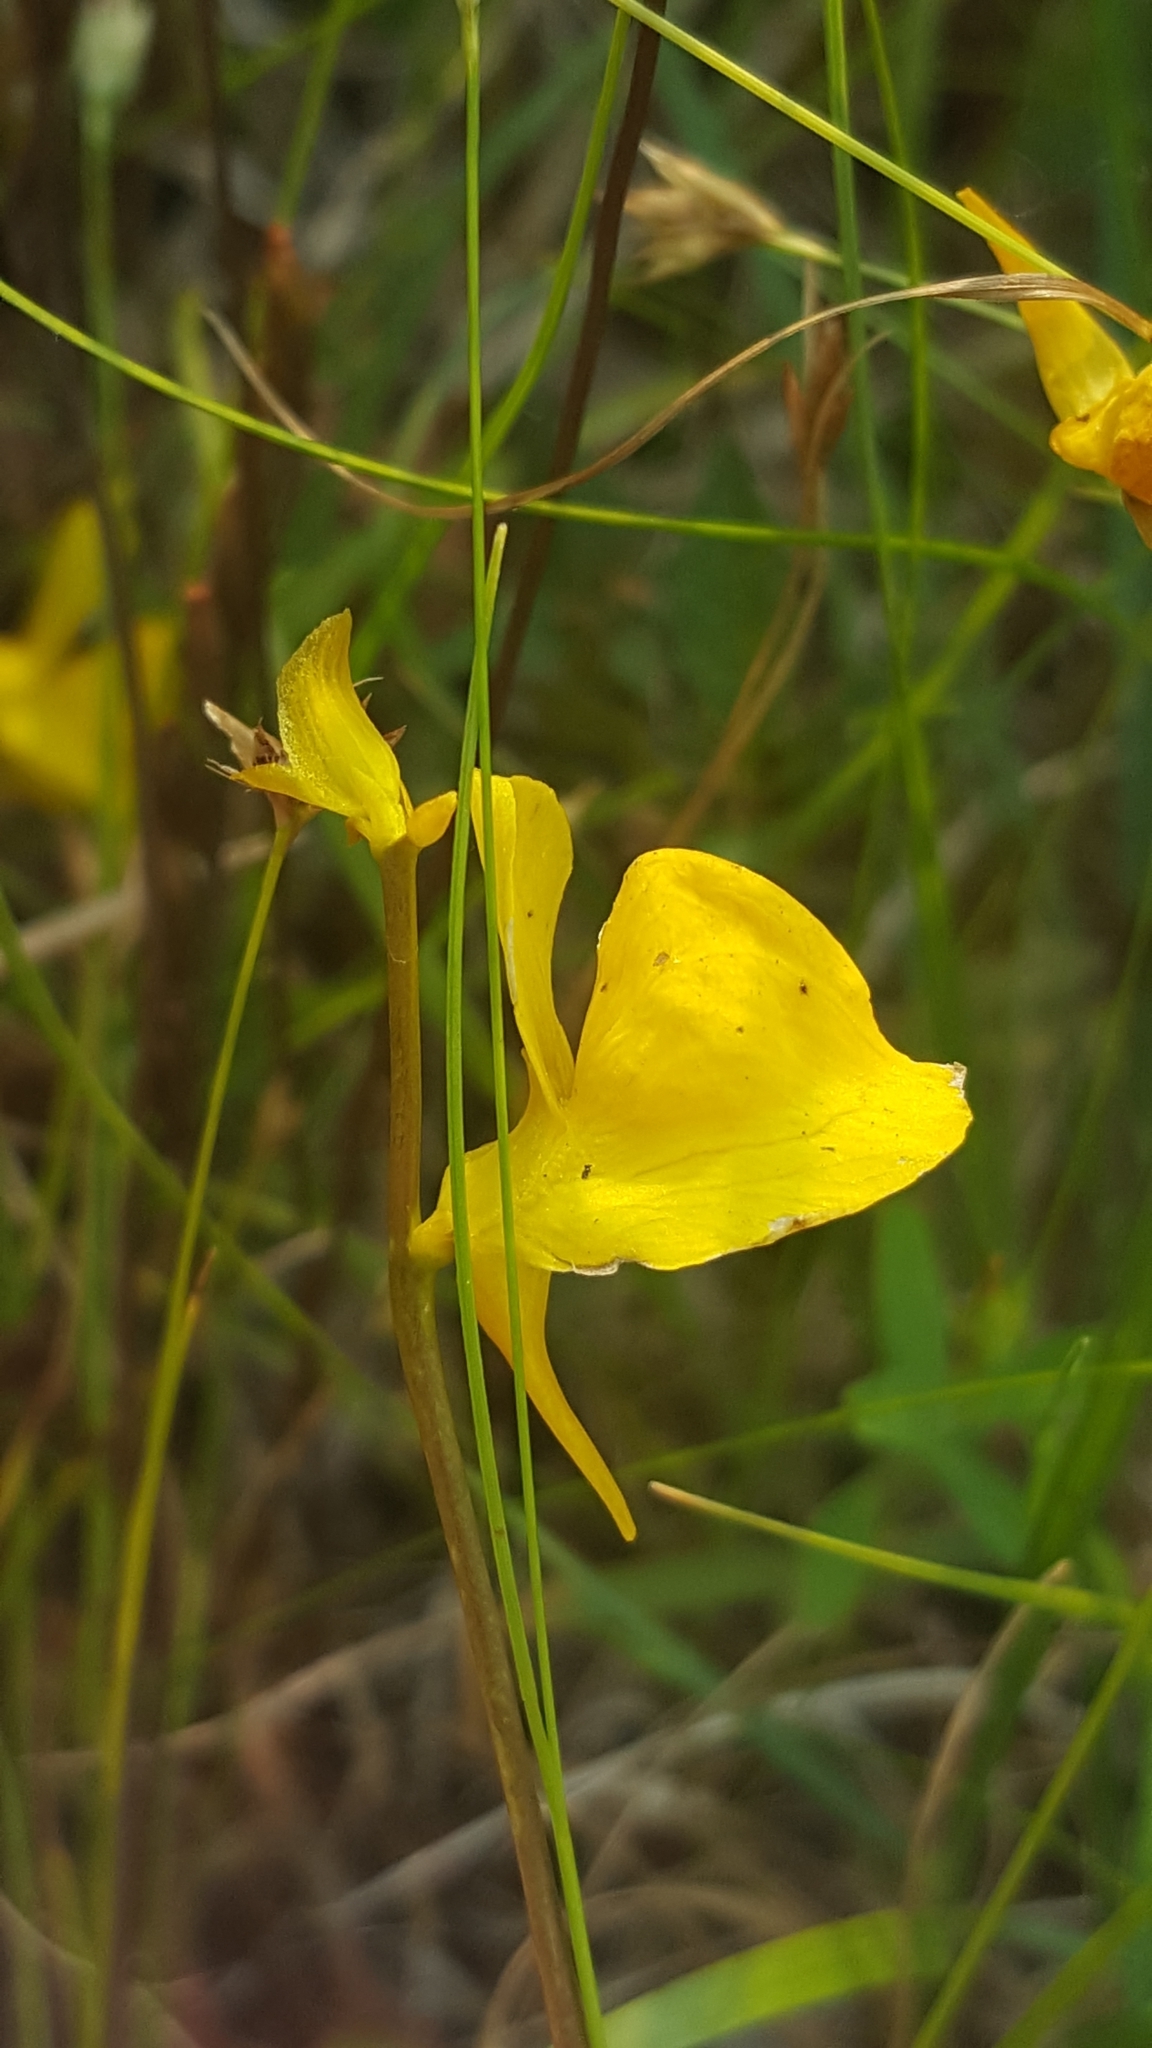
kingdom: Plantae
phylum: Tracheophyta
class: Magnoliopsida
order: Lamiales
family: Lentibulariaceae
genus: Utricularia
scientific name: Utricularia cornuta
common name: Horned bladderwort
